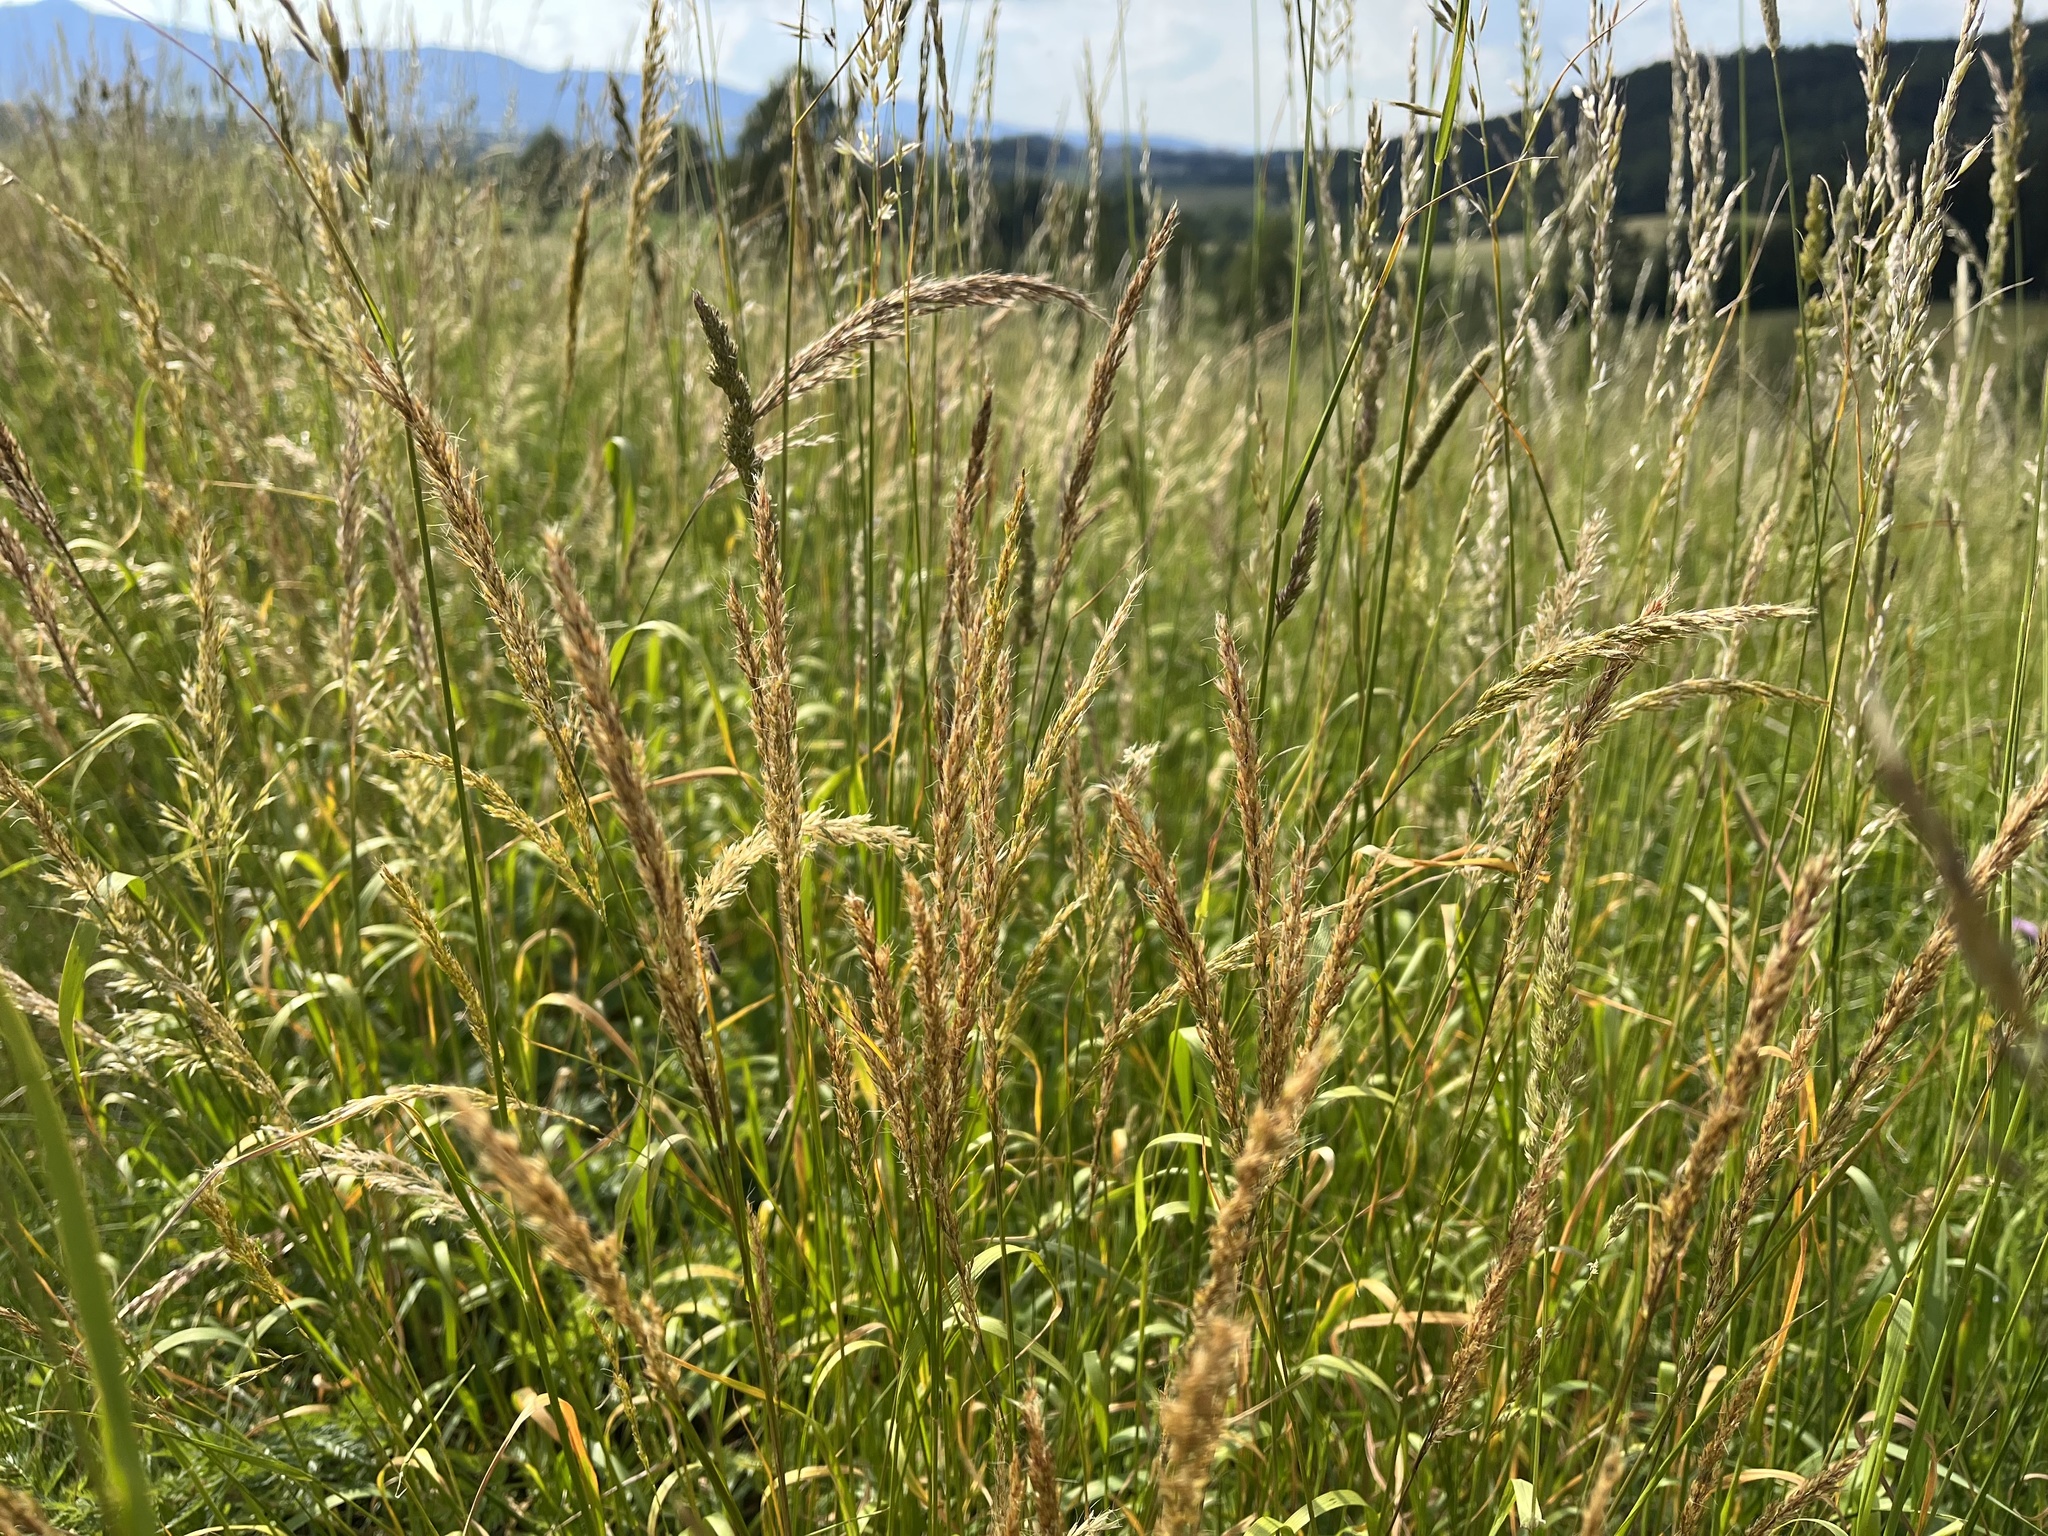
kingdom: Plantae
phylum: Tracheophyta
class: Liliopsida
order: Poales
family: Poaceae
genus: Trisetum
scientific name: Trisetum flavescens
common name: Yellow oat-grass
